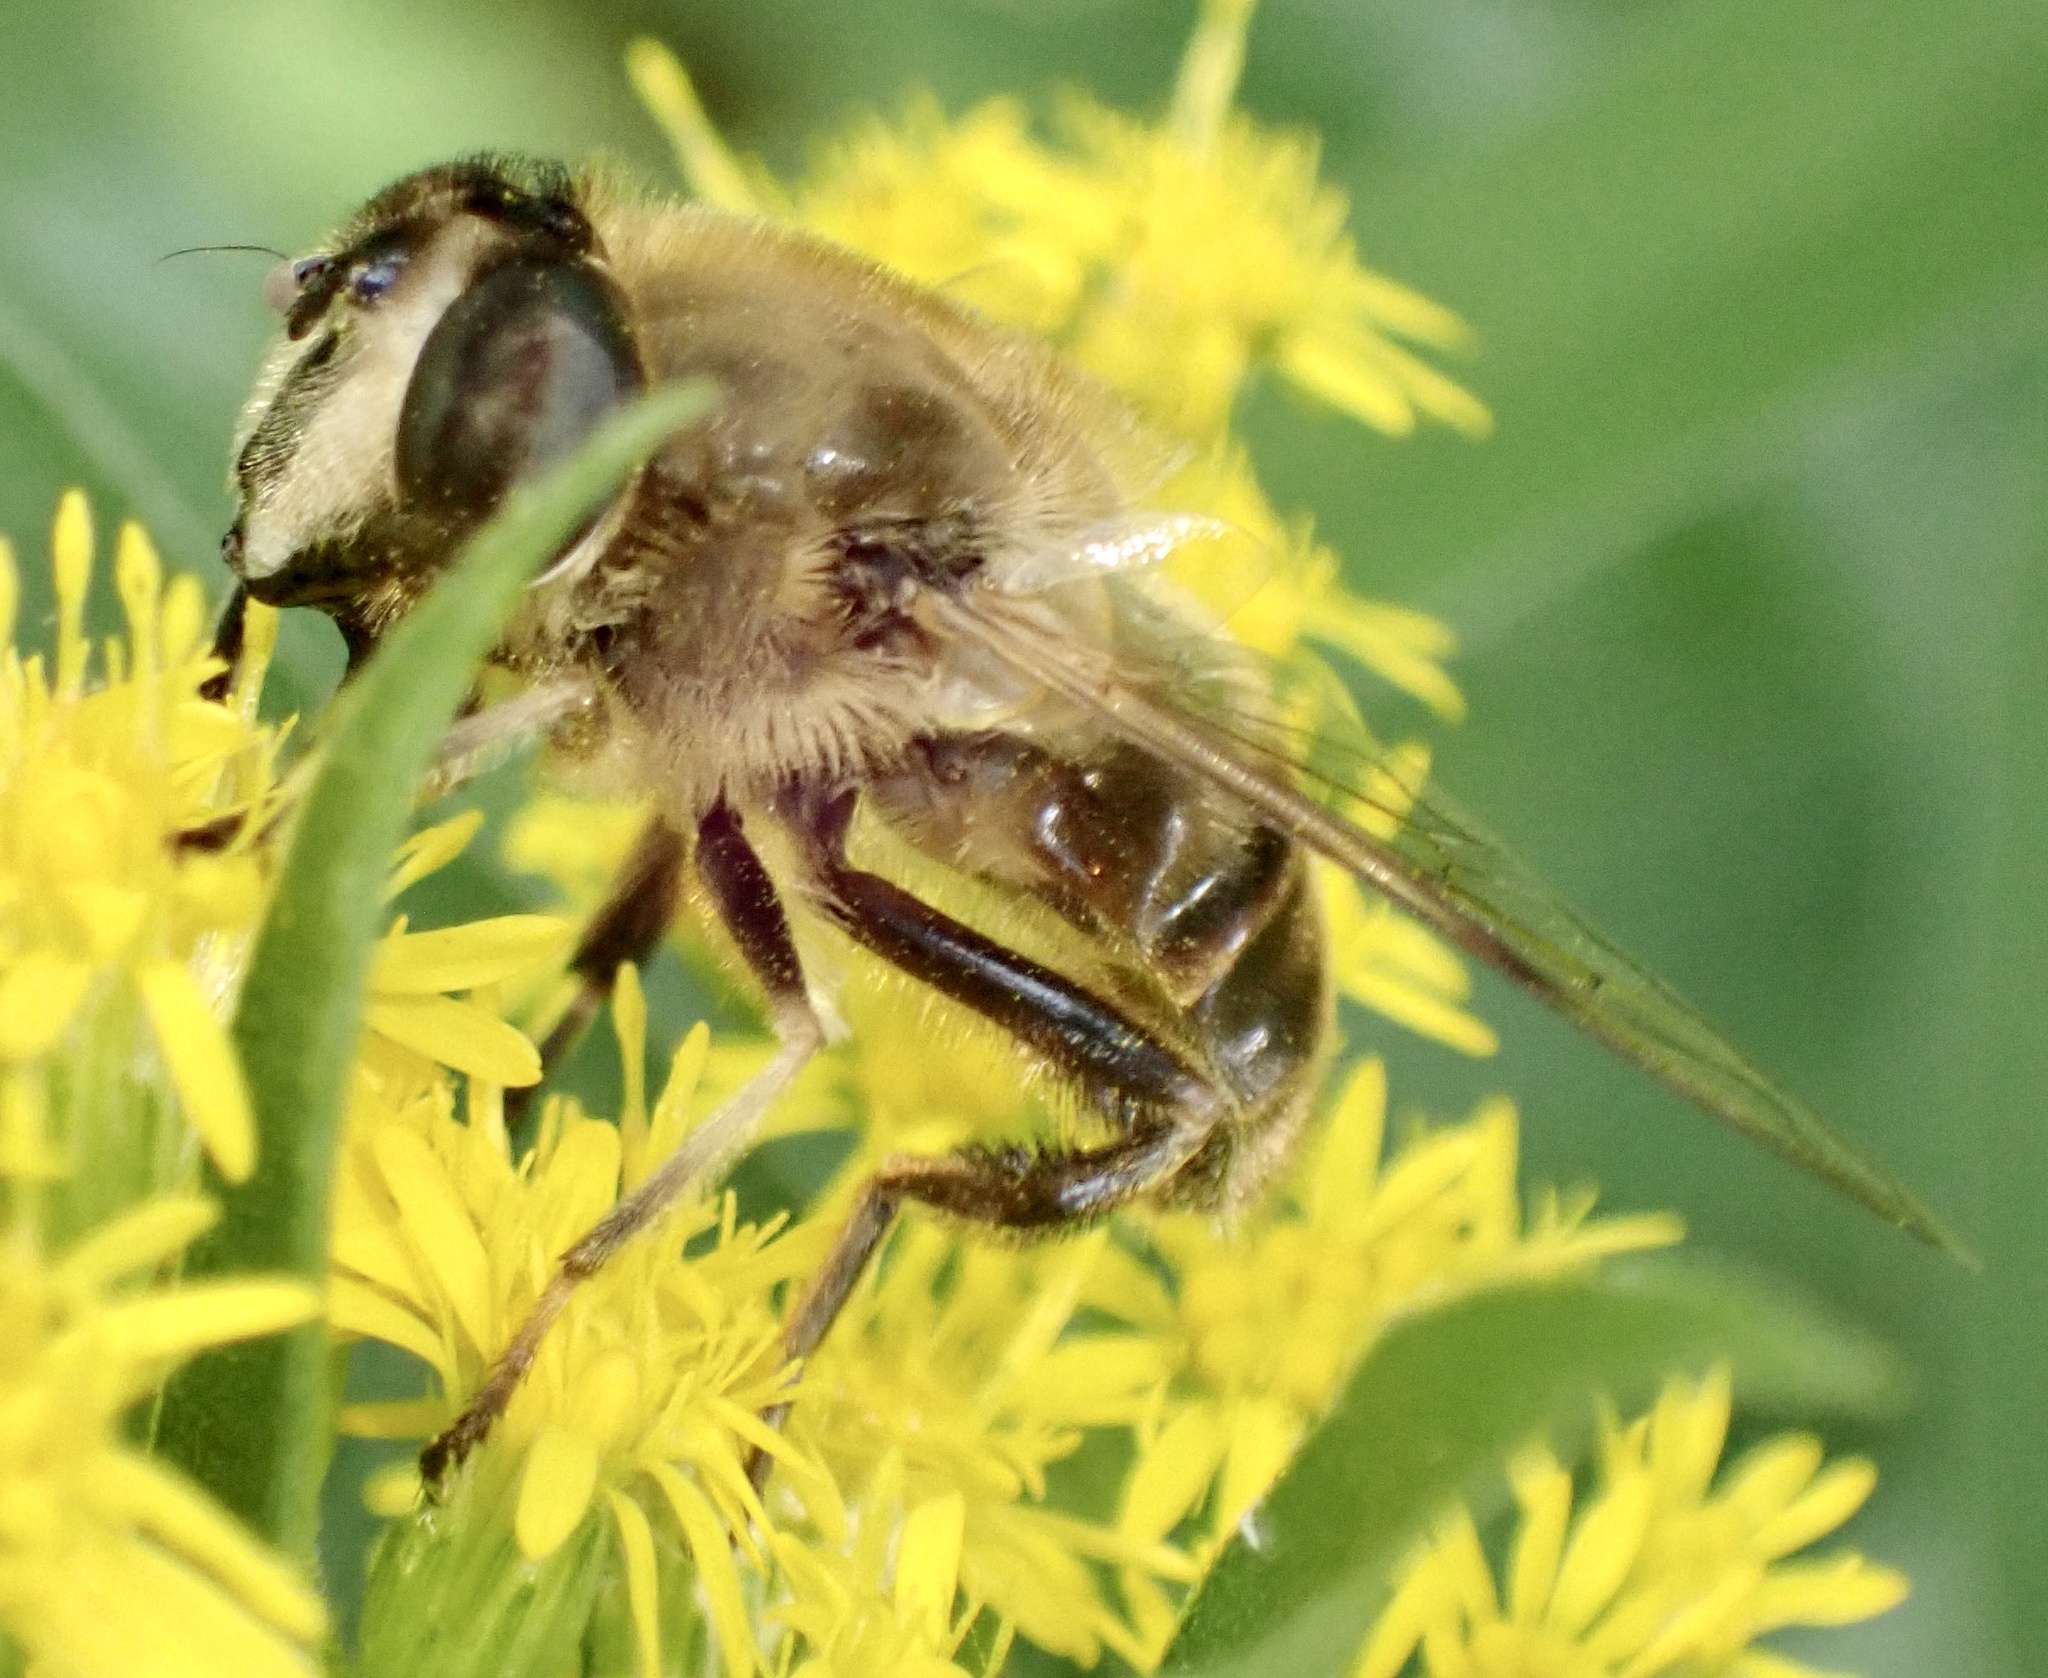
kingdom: Animalia
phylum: Arthropoda
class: Insecta
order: Diptera
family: Syrphidae
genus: Eristalis
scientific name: Eristalis tenax
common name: Drone fly
